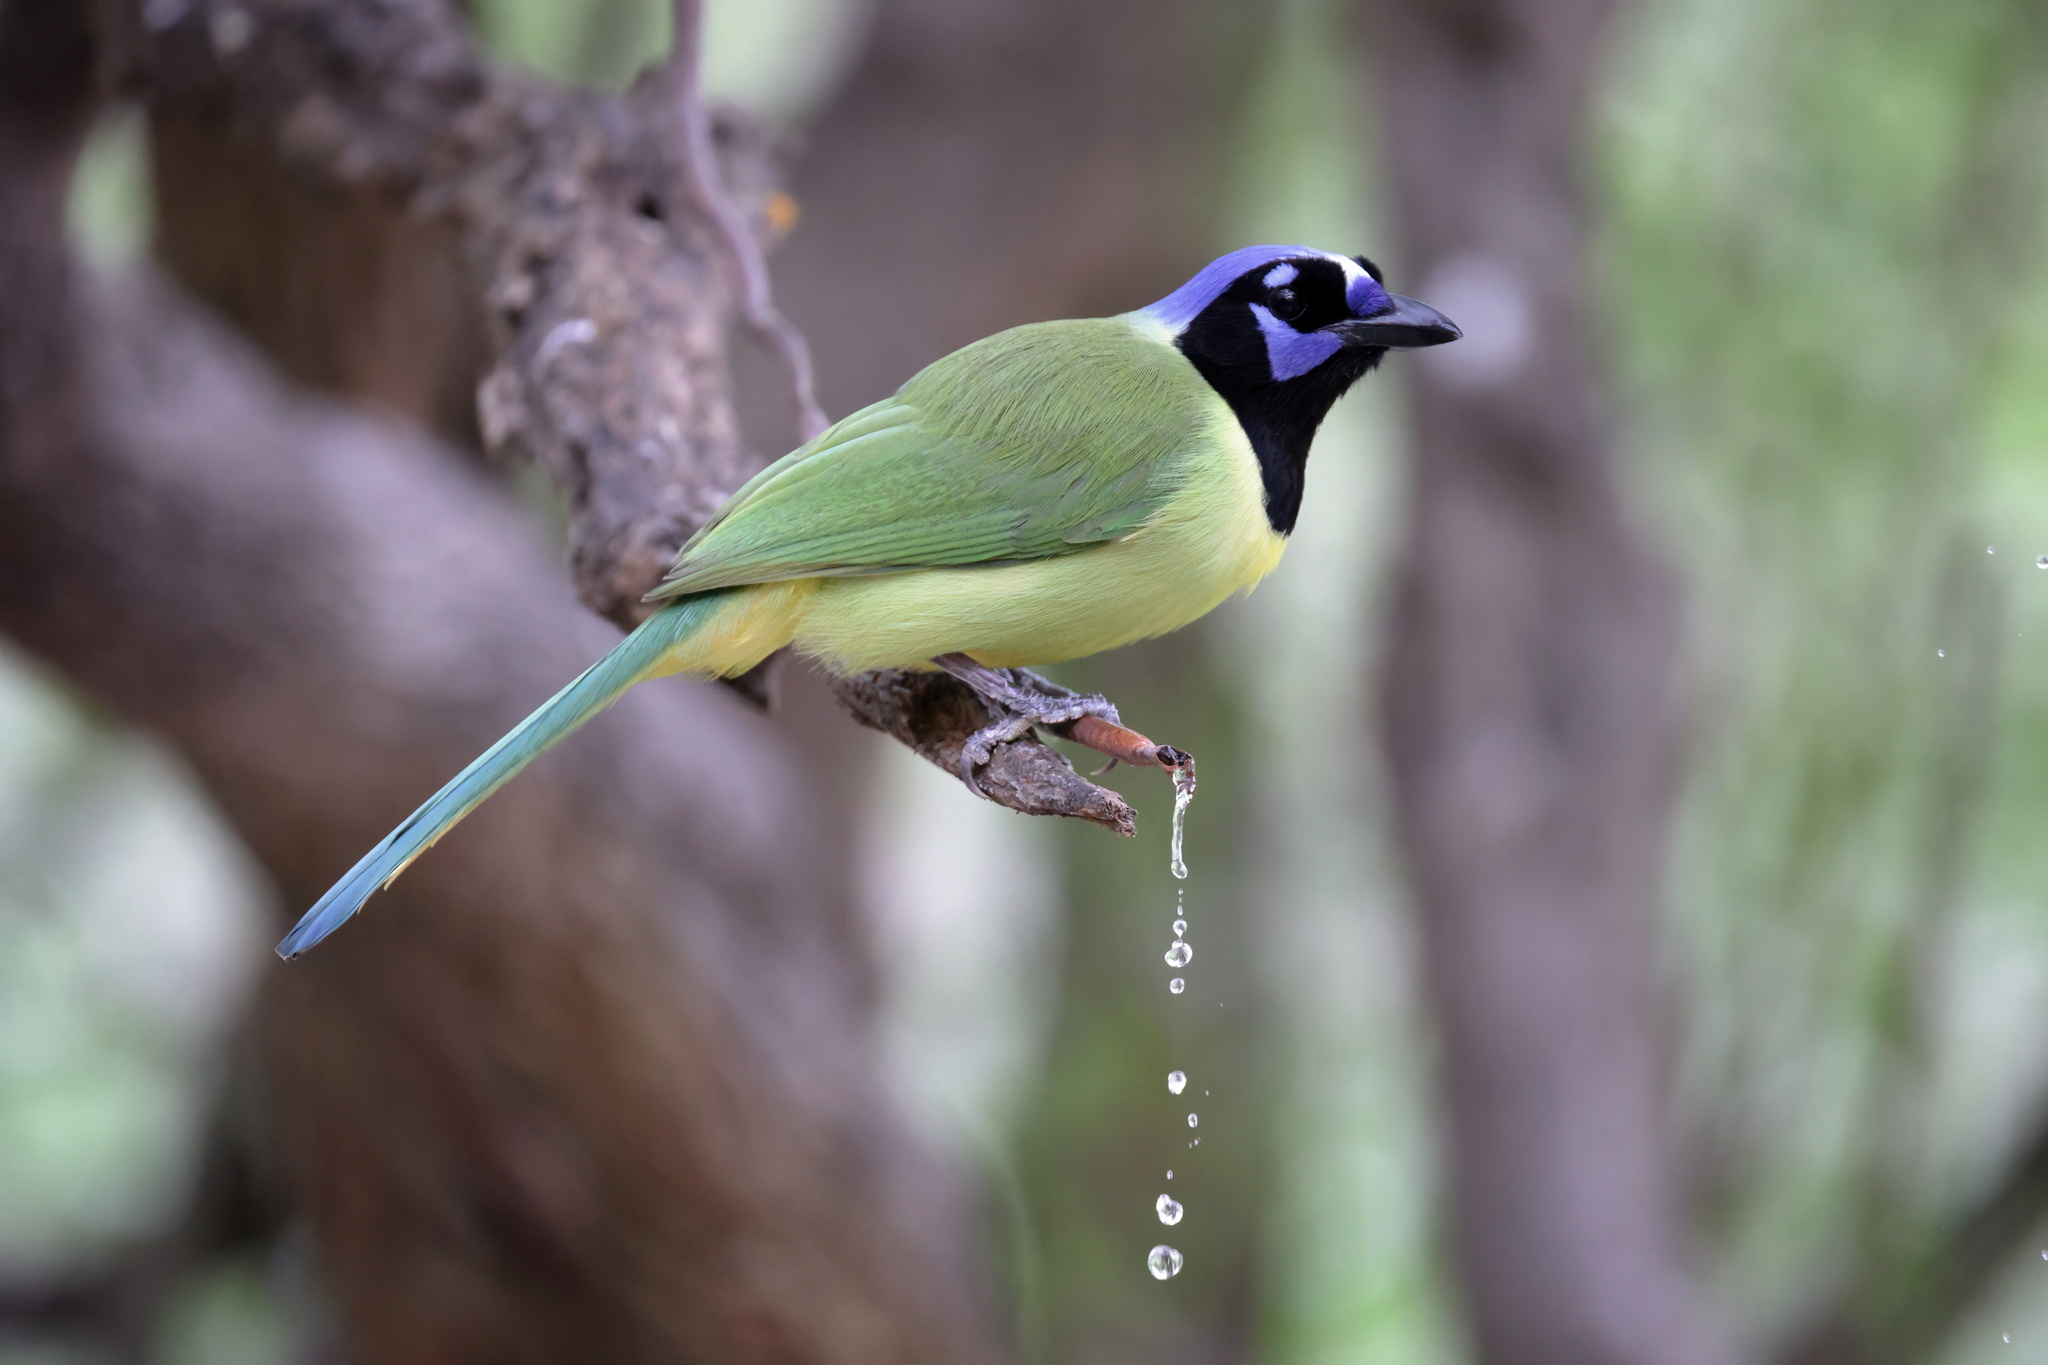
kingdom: Animalia
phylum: Chordata
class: Aves
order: Passeriformes
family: Corvidae
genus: Cyanocorax
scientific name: Cyanocorax yncas
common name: Green jay
